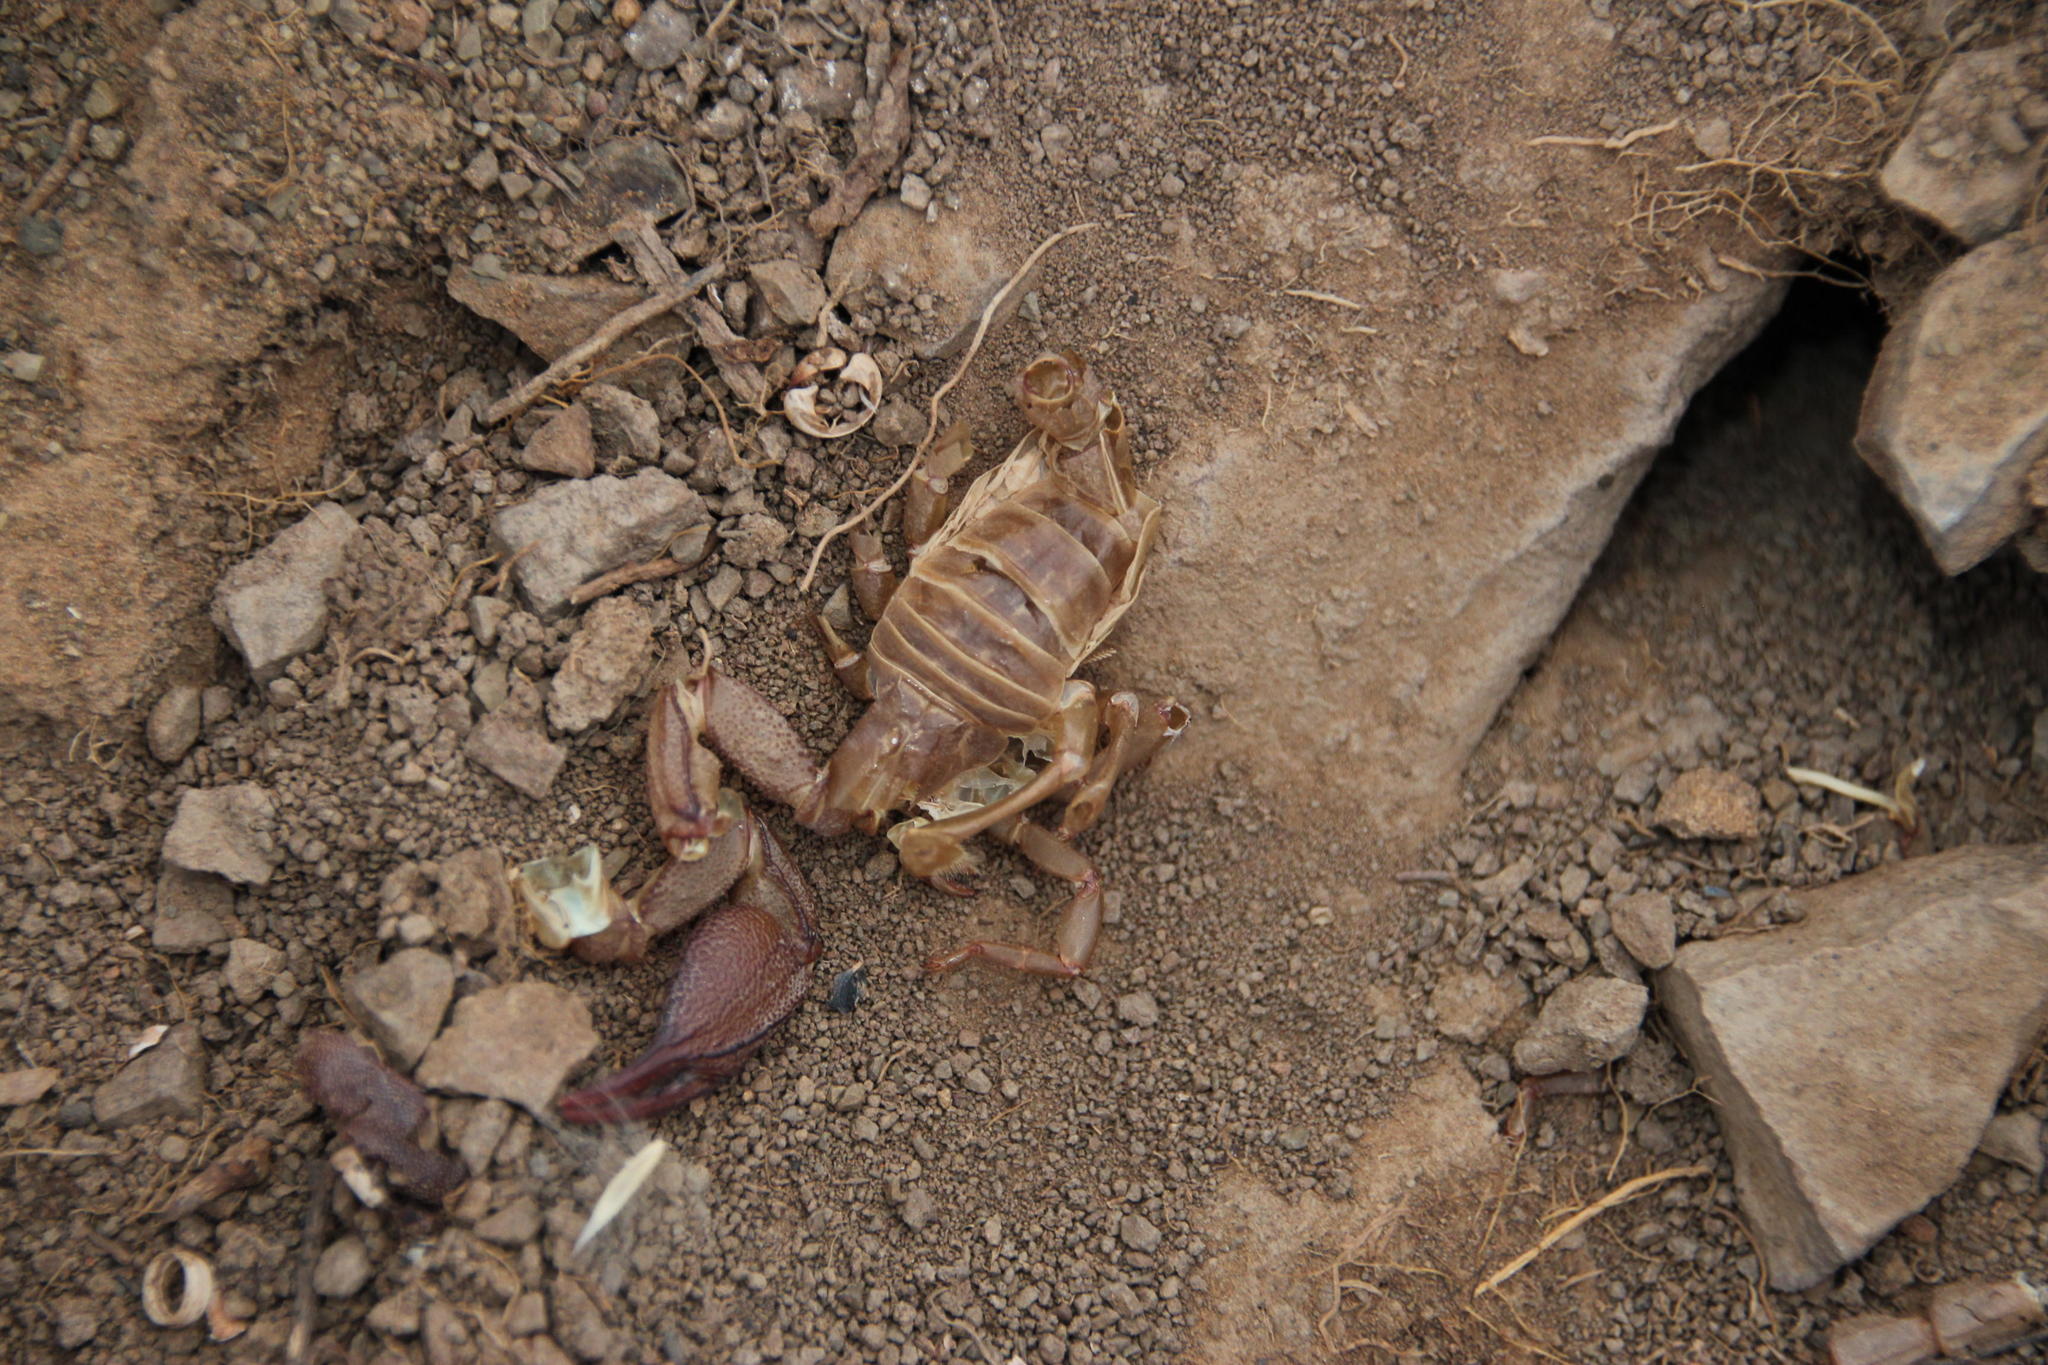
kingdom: Animalia
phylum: Arthropoda
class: Arachnida
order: Scorpiones
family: Scorpionidae
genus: Opistophthalmus
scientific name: Opistophthalmus
